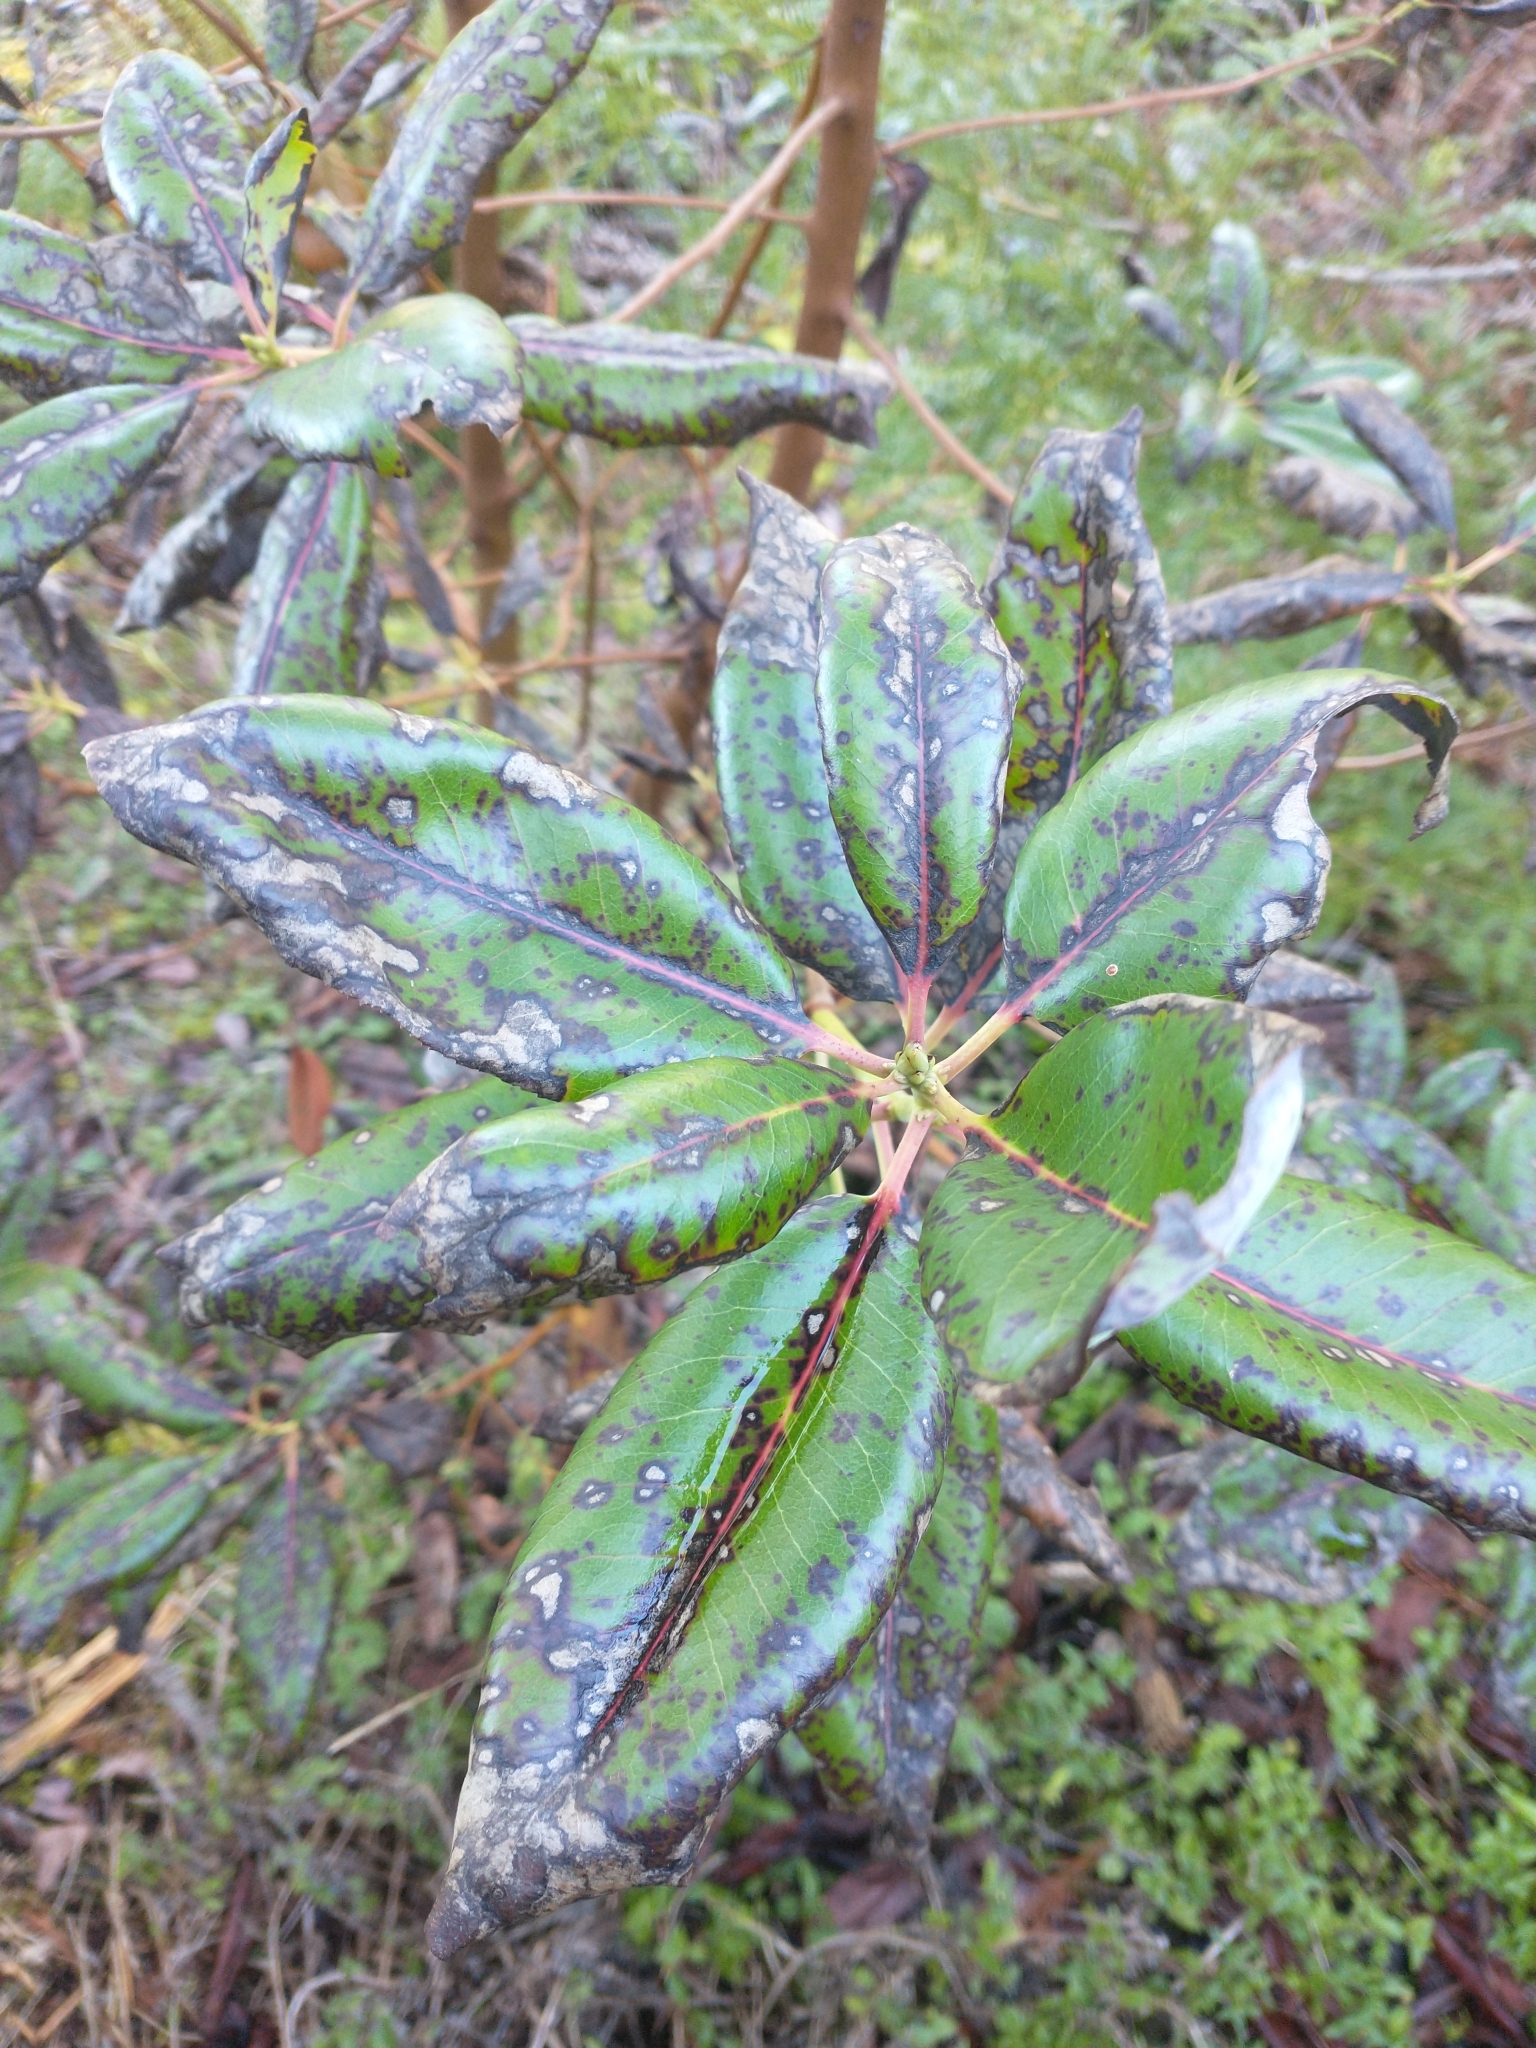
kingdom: Plantae
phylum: Tracheophyta
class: Magnoliopsida
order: Ericales
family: Ericaceae
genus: Arbutus
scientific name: Arbutus menziesii
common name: Pacific madrone
